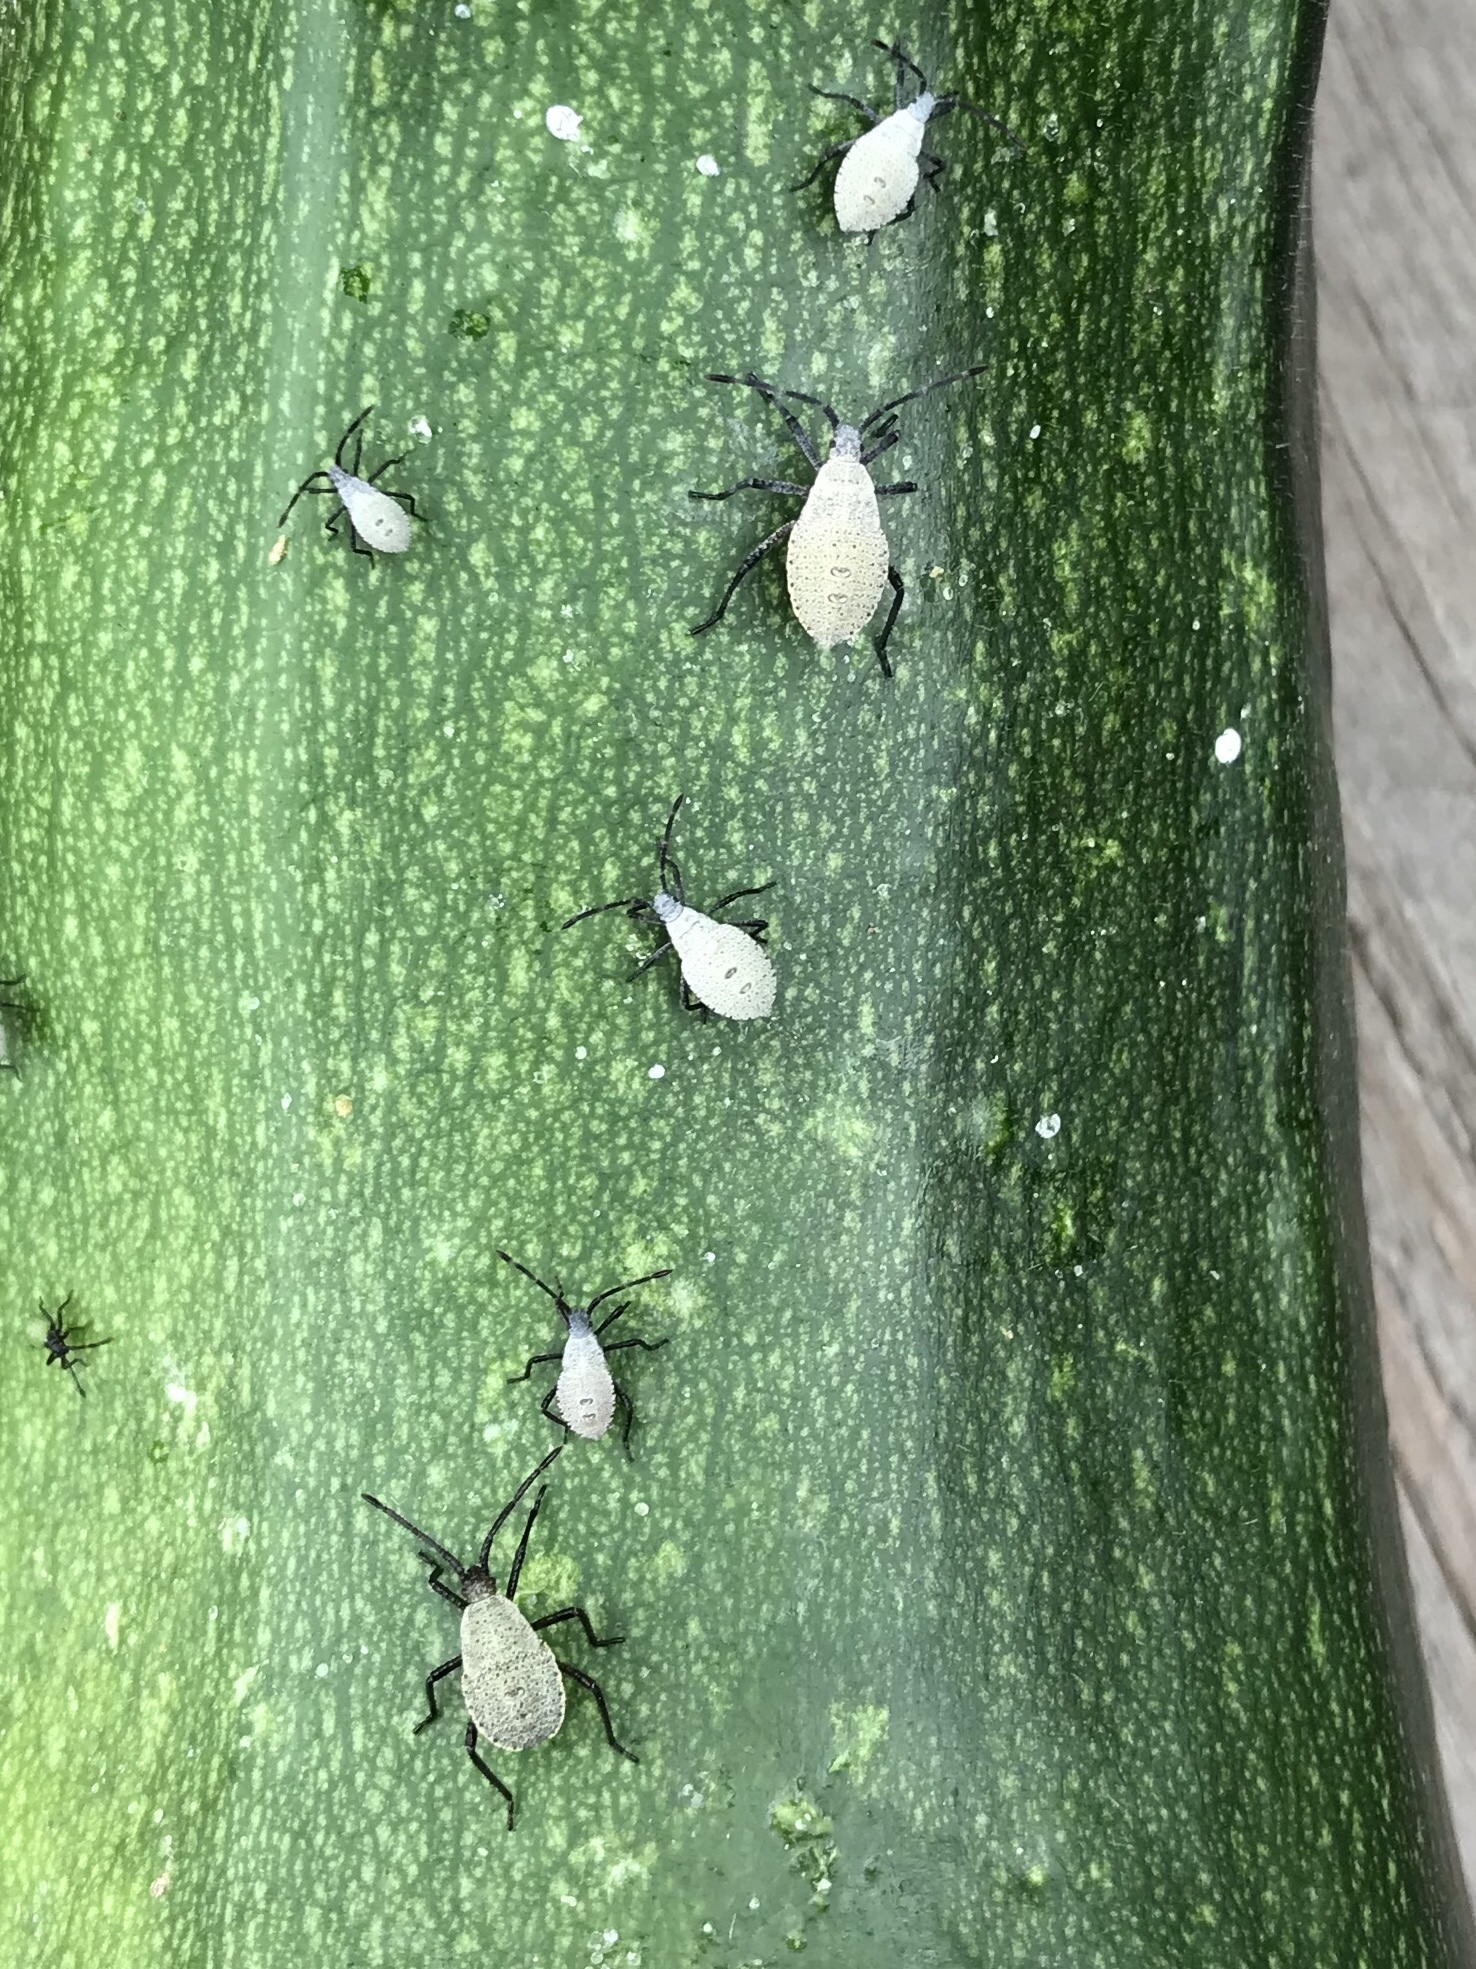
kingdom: Animalia
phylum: Arthropoda
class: Insecta
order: Hemiptera
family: Coreidae
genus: Anasa
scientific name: Anasa tristis
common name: Squash bug
